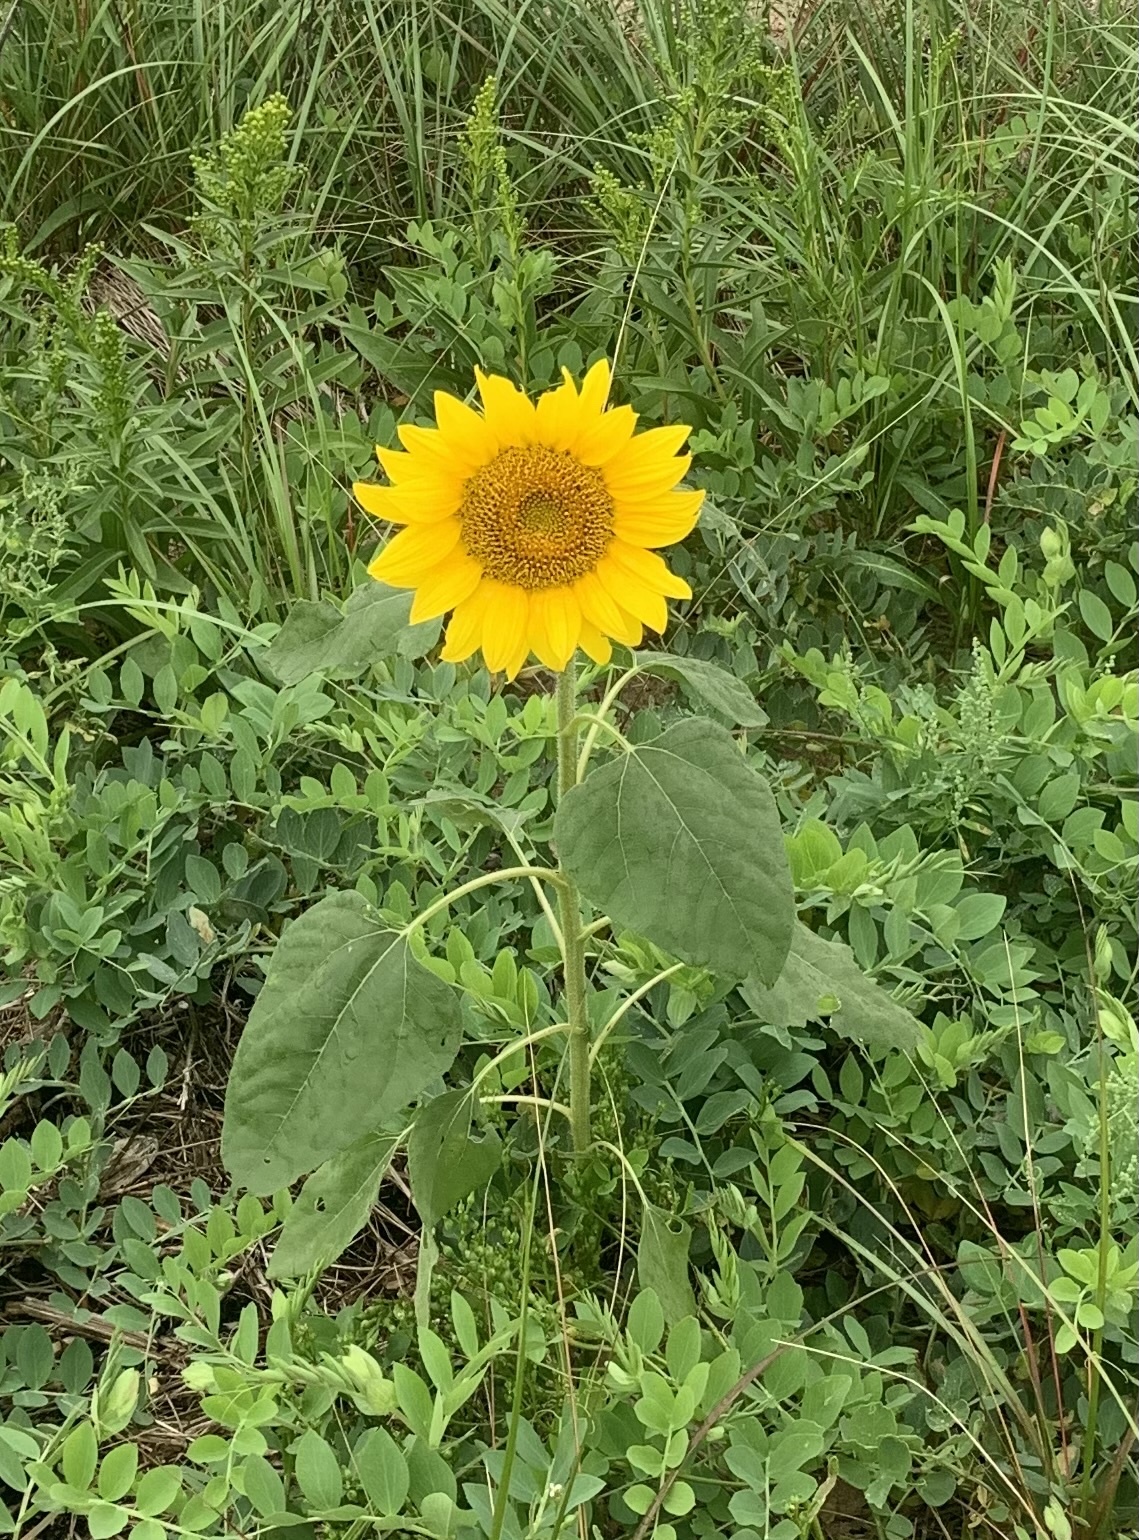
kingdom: Plantae
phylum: Tracheophyta
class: Magnoliopsida
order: Asterales
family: Asteraceae
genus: Helianthus
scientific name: Helianthus annuus
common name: Sunflower
